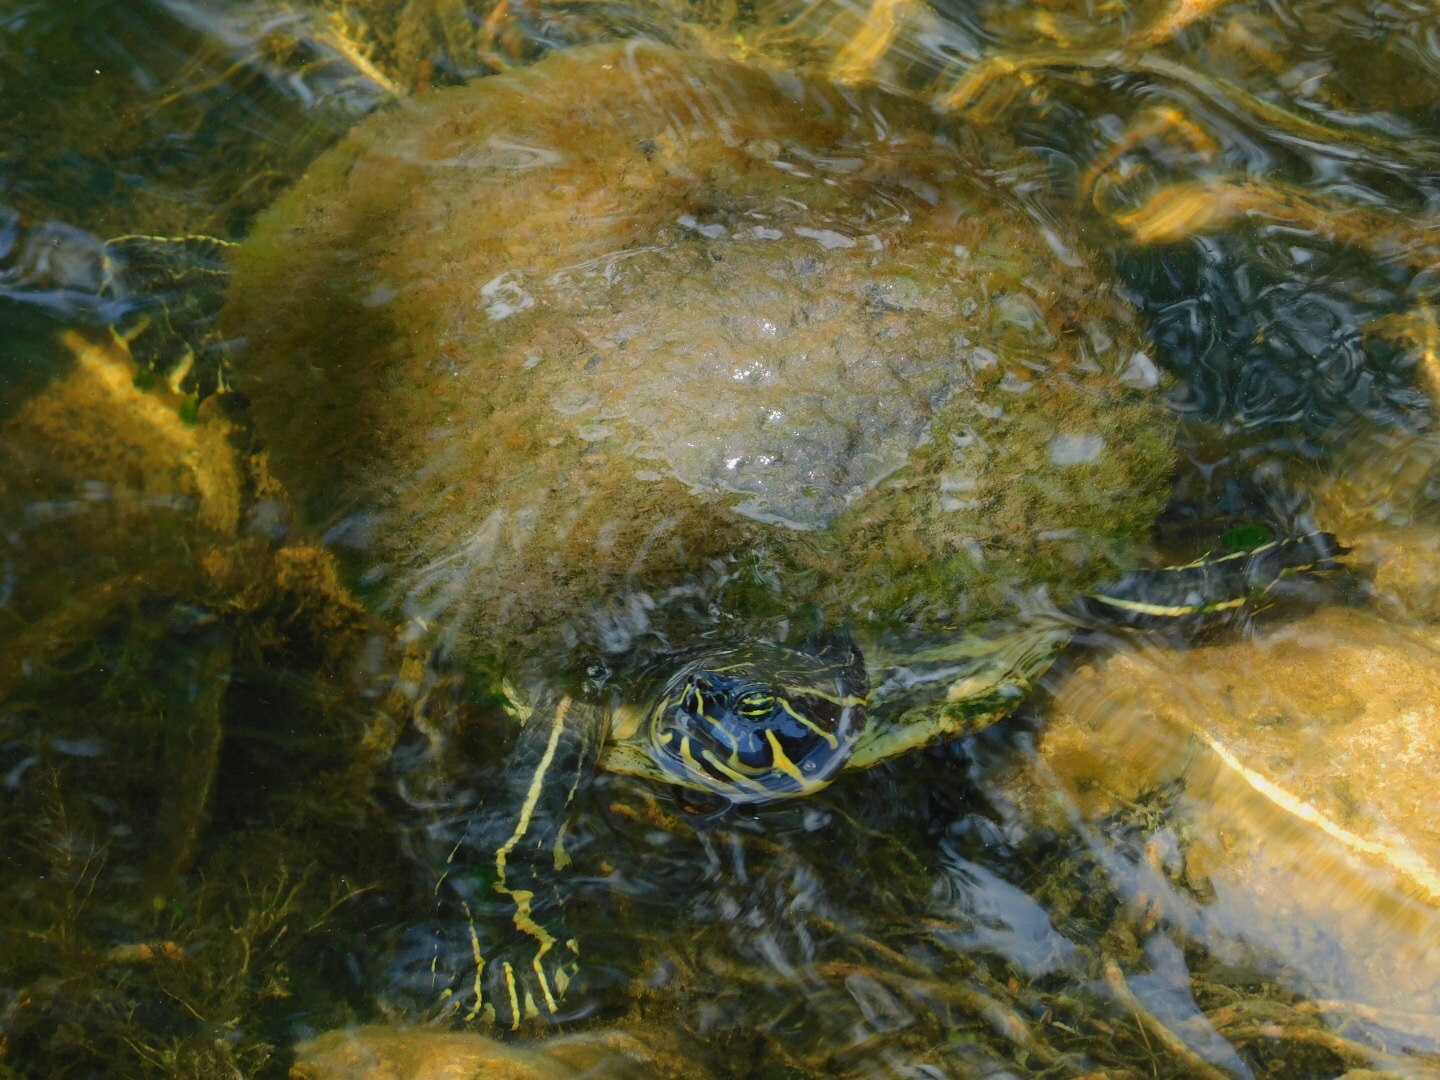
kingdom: Animalia
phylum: Chordata
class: Testudines
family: Emydidae
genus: Pseudemys
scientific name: Pseudemys peninsularis
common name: Peninsula cooter
